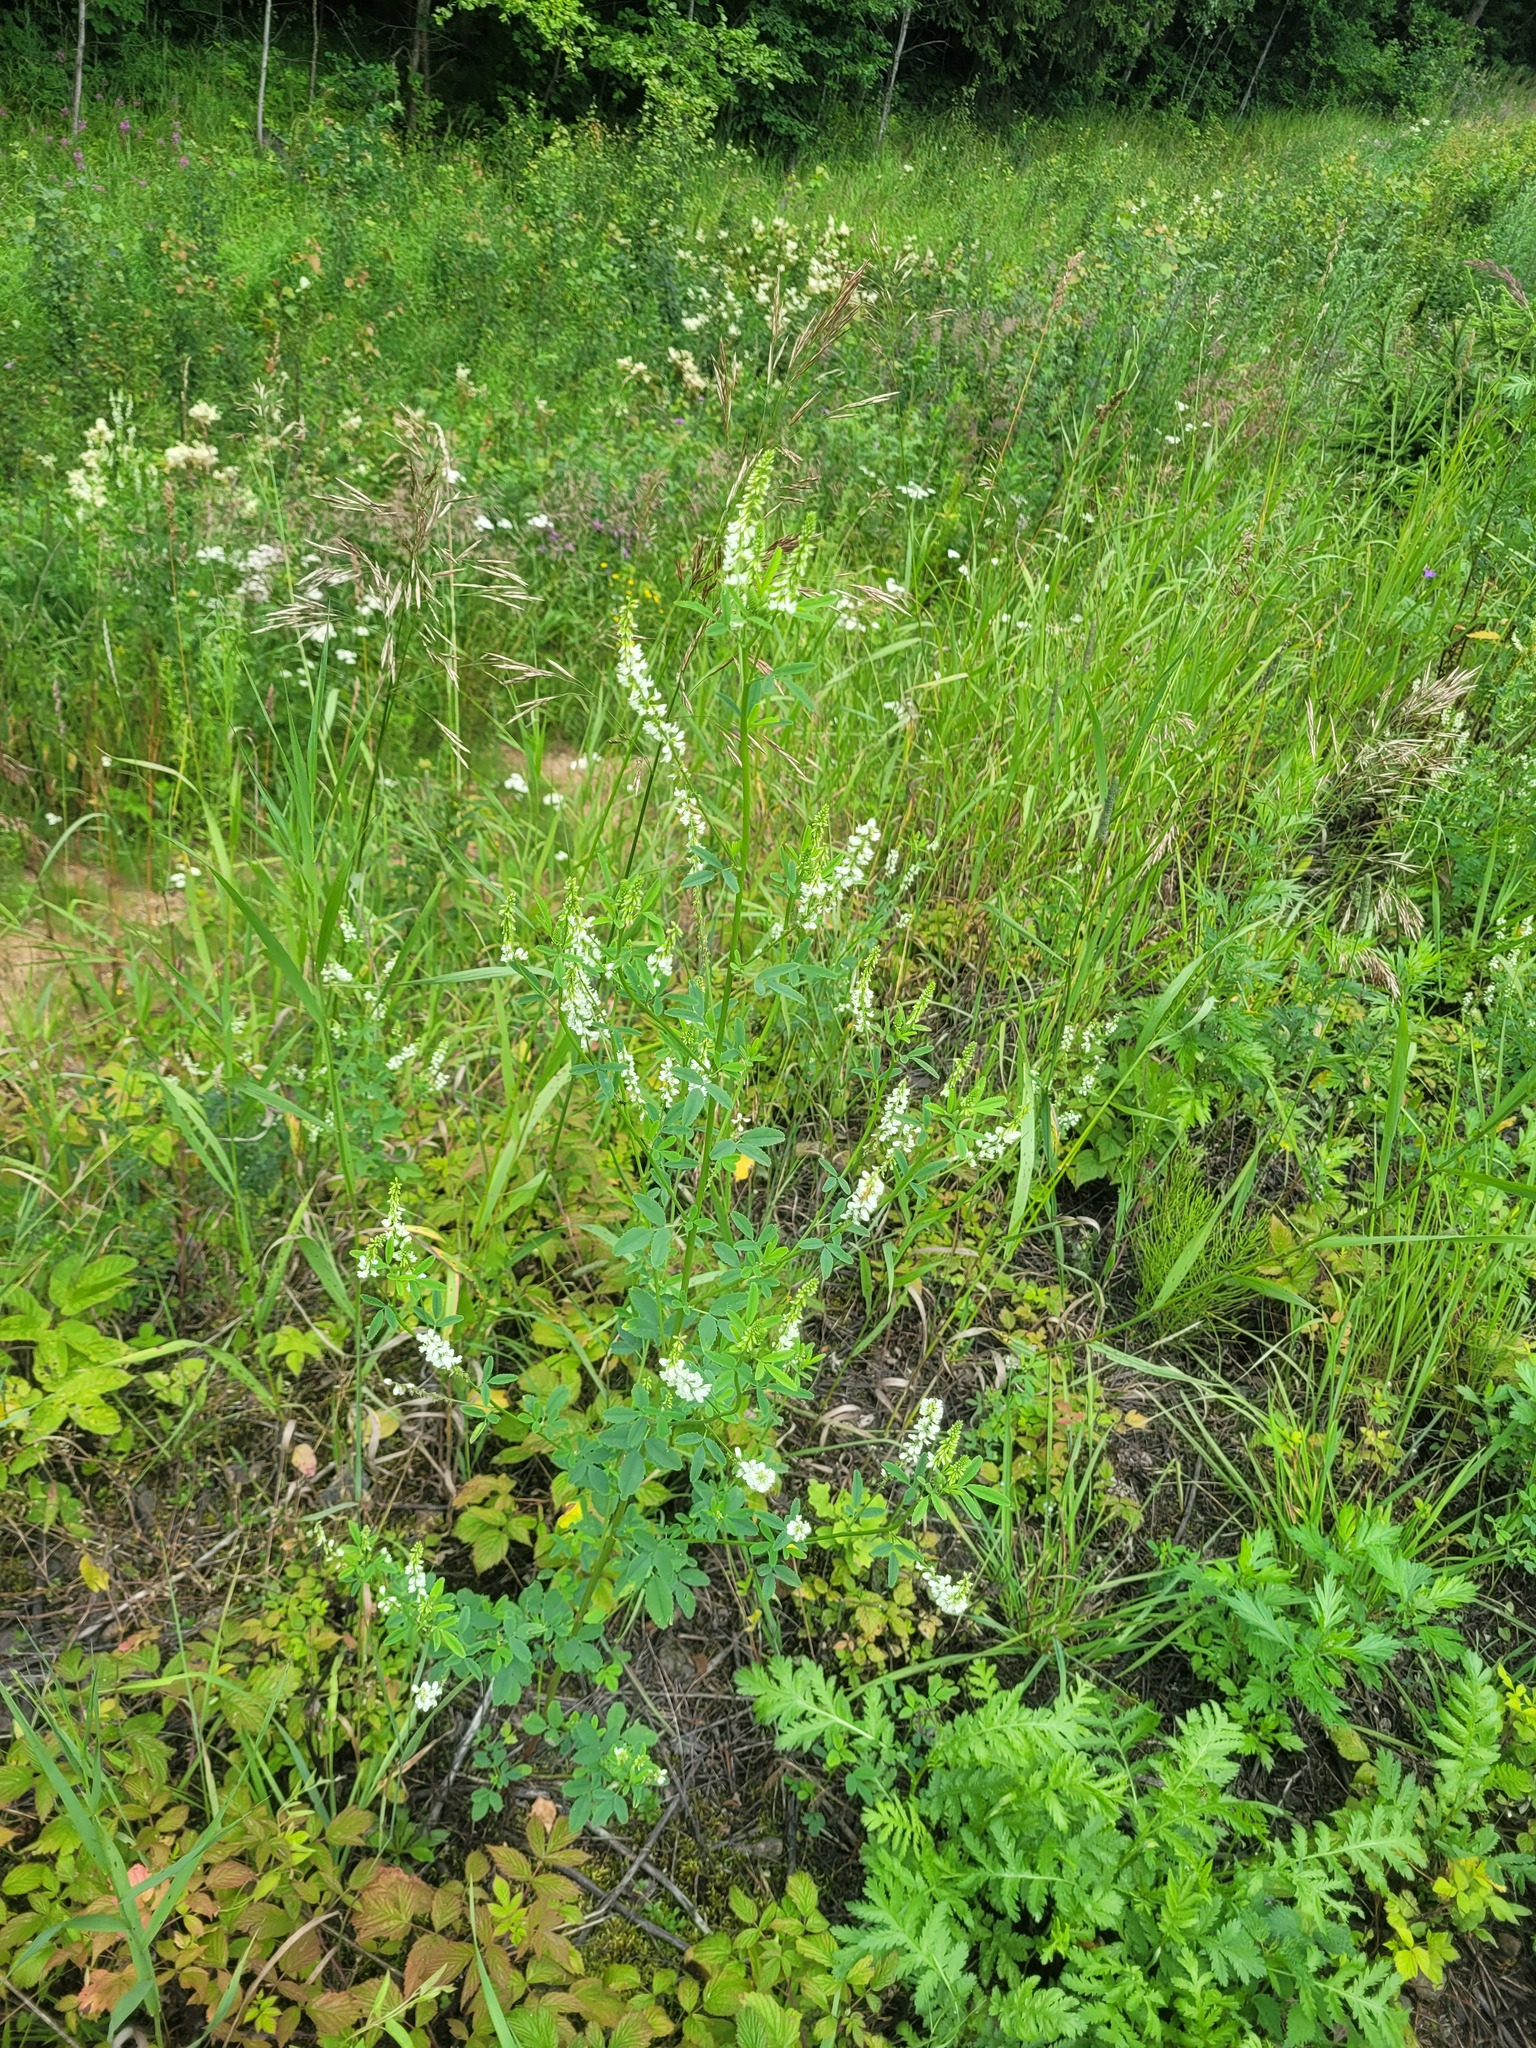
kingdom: Plantae
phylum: Tracheophyta
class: Magnoliopsida
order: Fabales
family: Fabaceae
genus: Melilotus
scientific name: Melilotus albus
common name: White melilot
